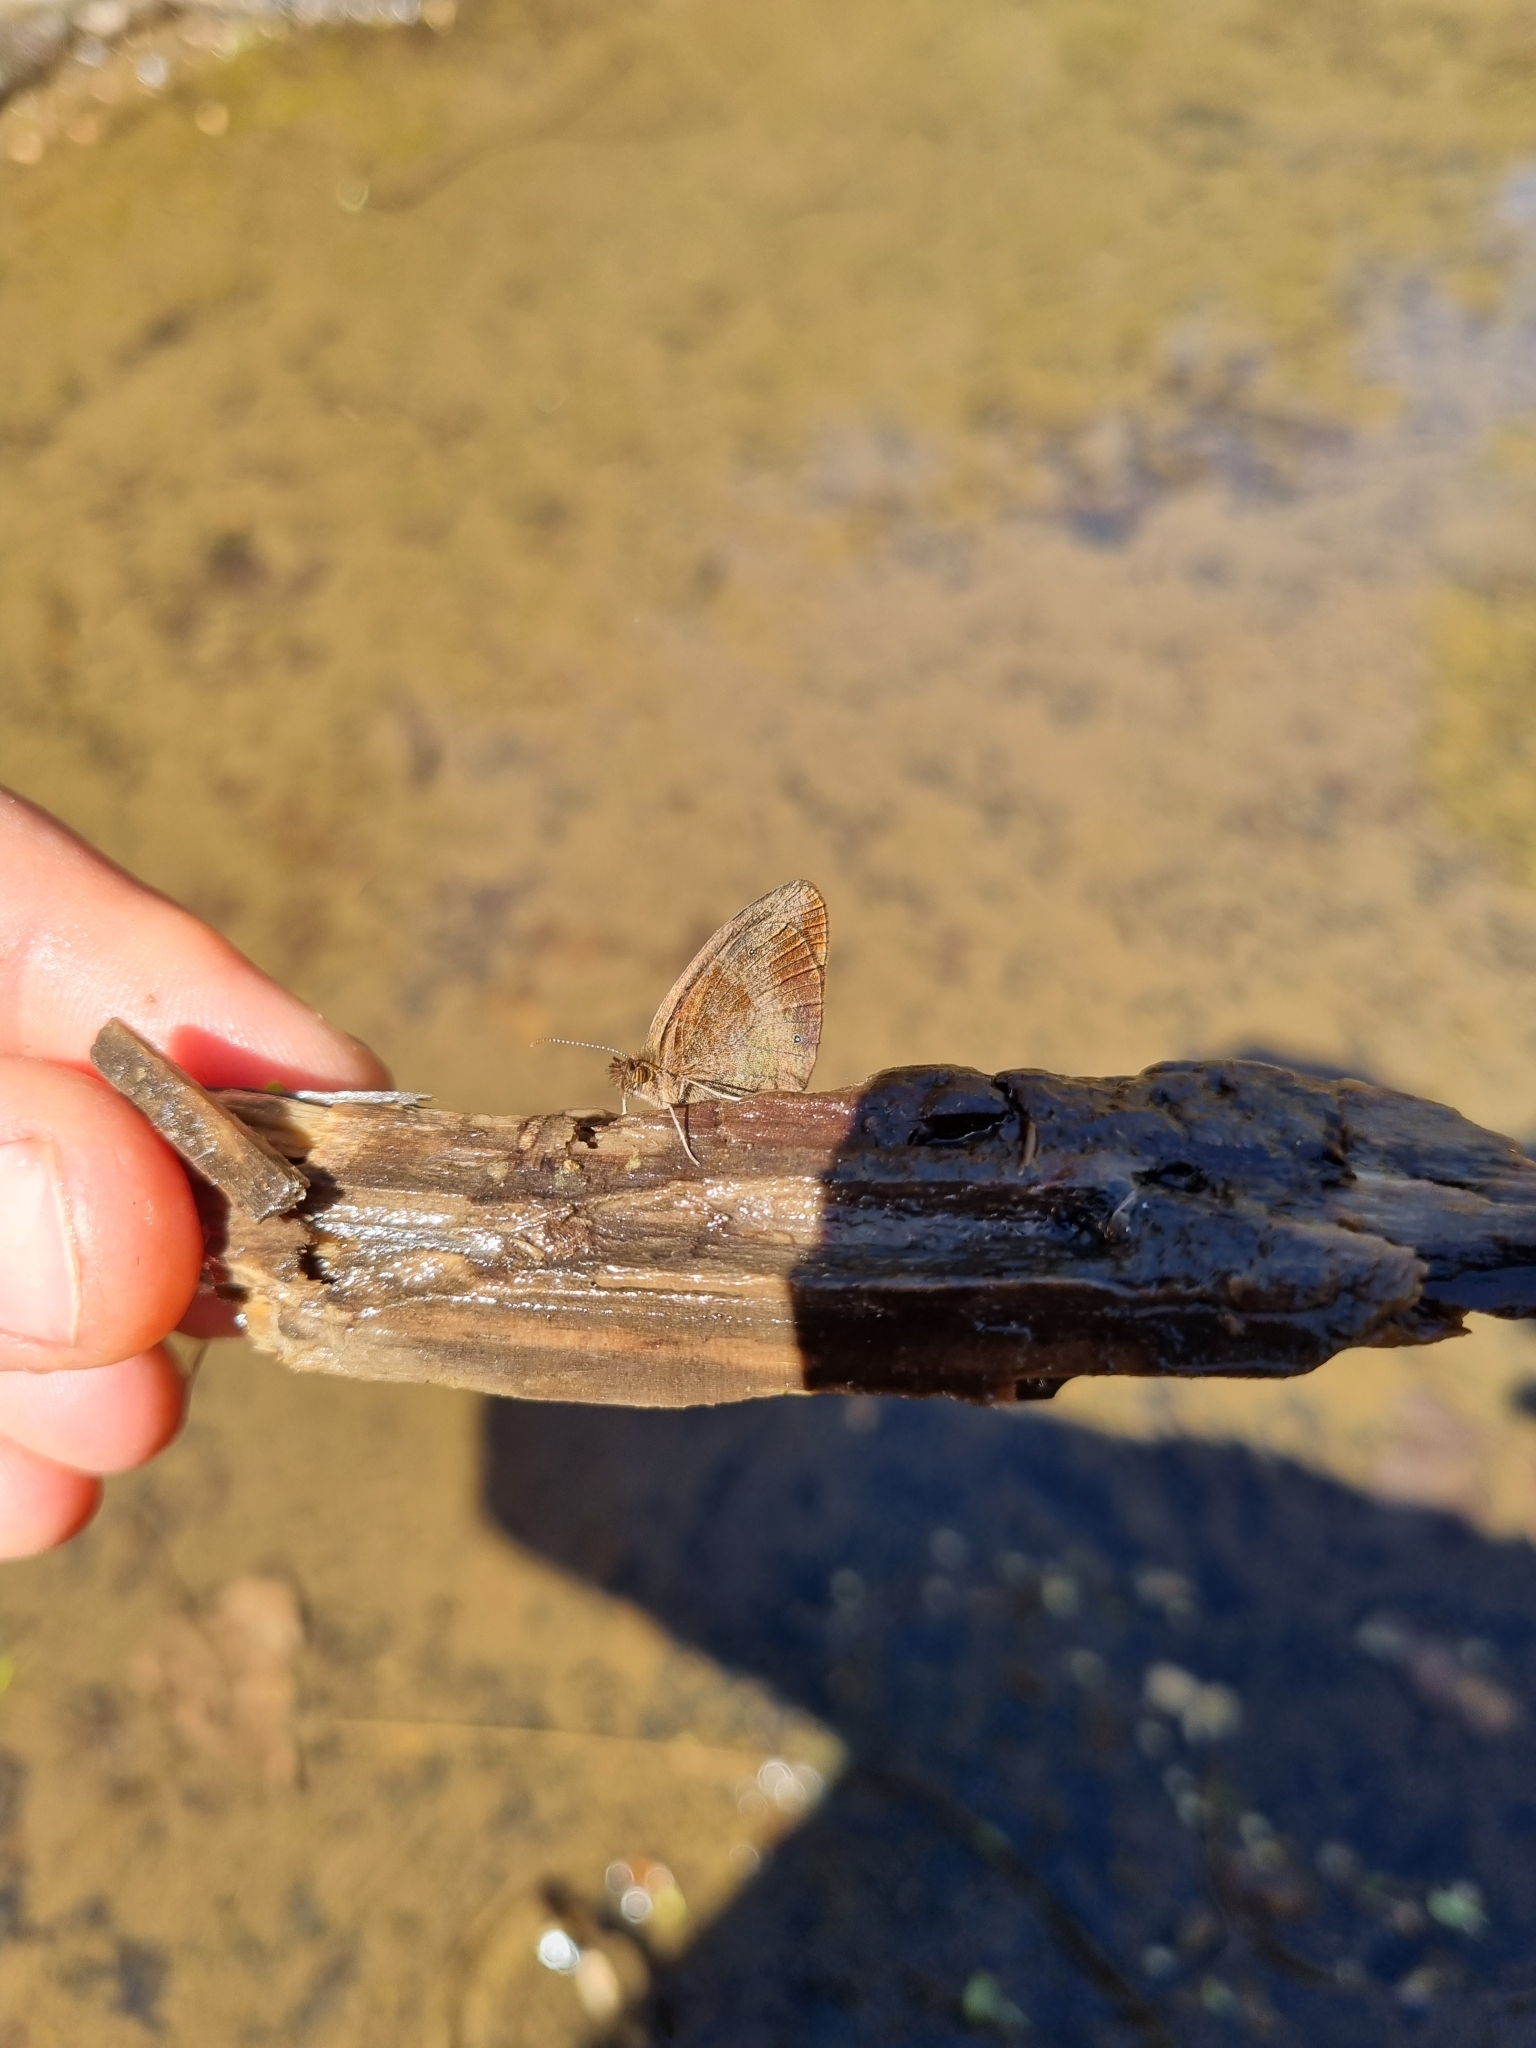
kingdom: Animalia
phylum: Arthropoda
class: Insecta
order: Lepidoptera
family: Nymphalidae
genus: Cassionympha
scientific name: Cassionympha cassius
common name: Rainforest brown
